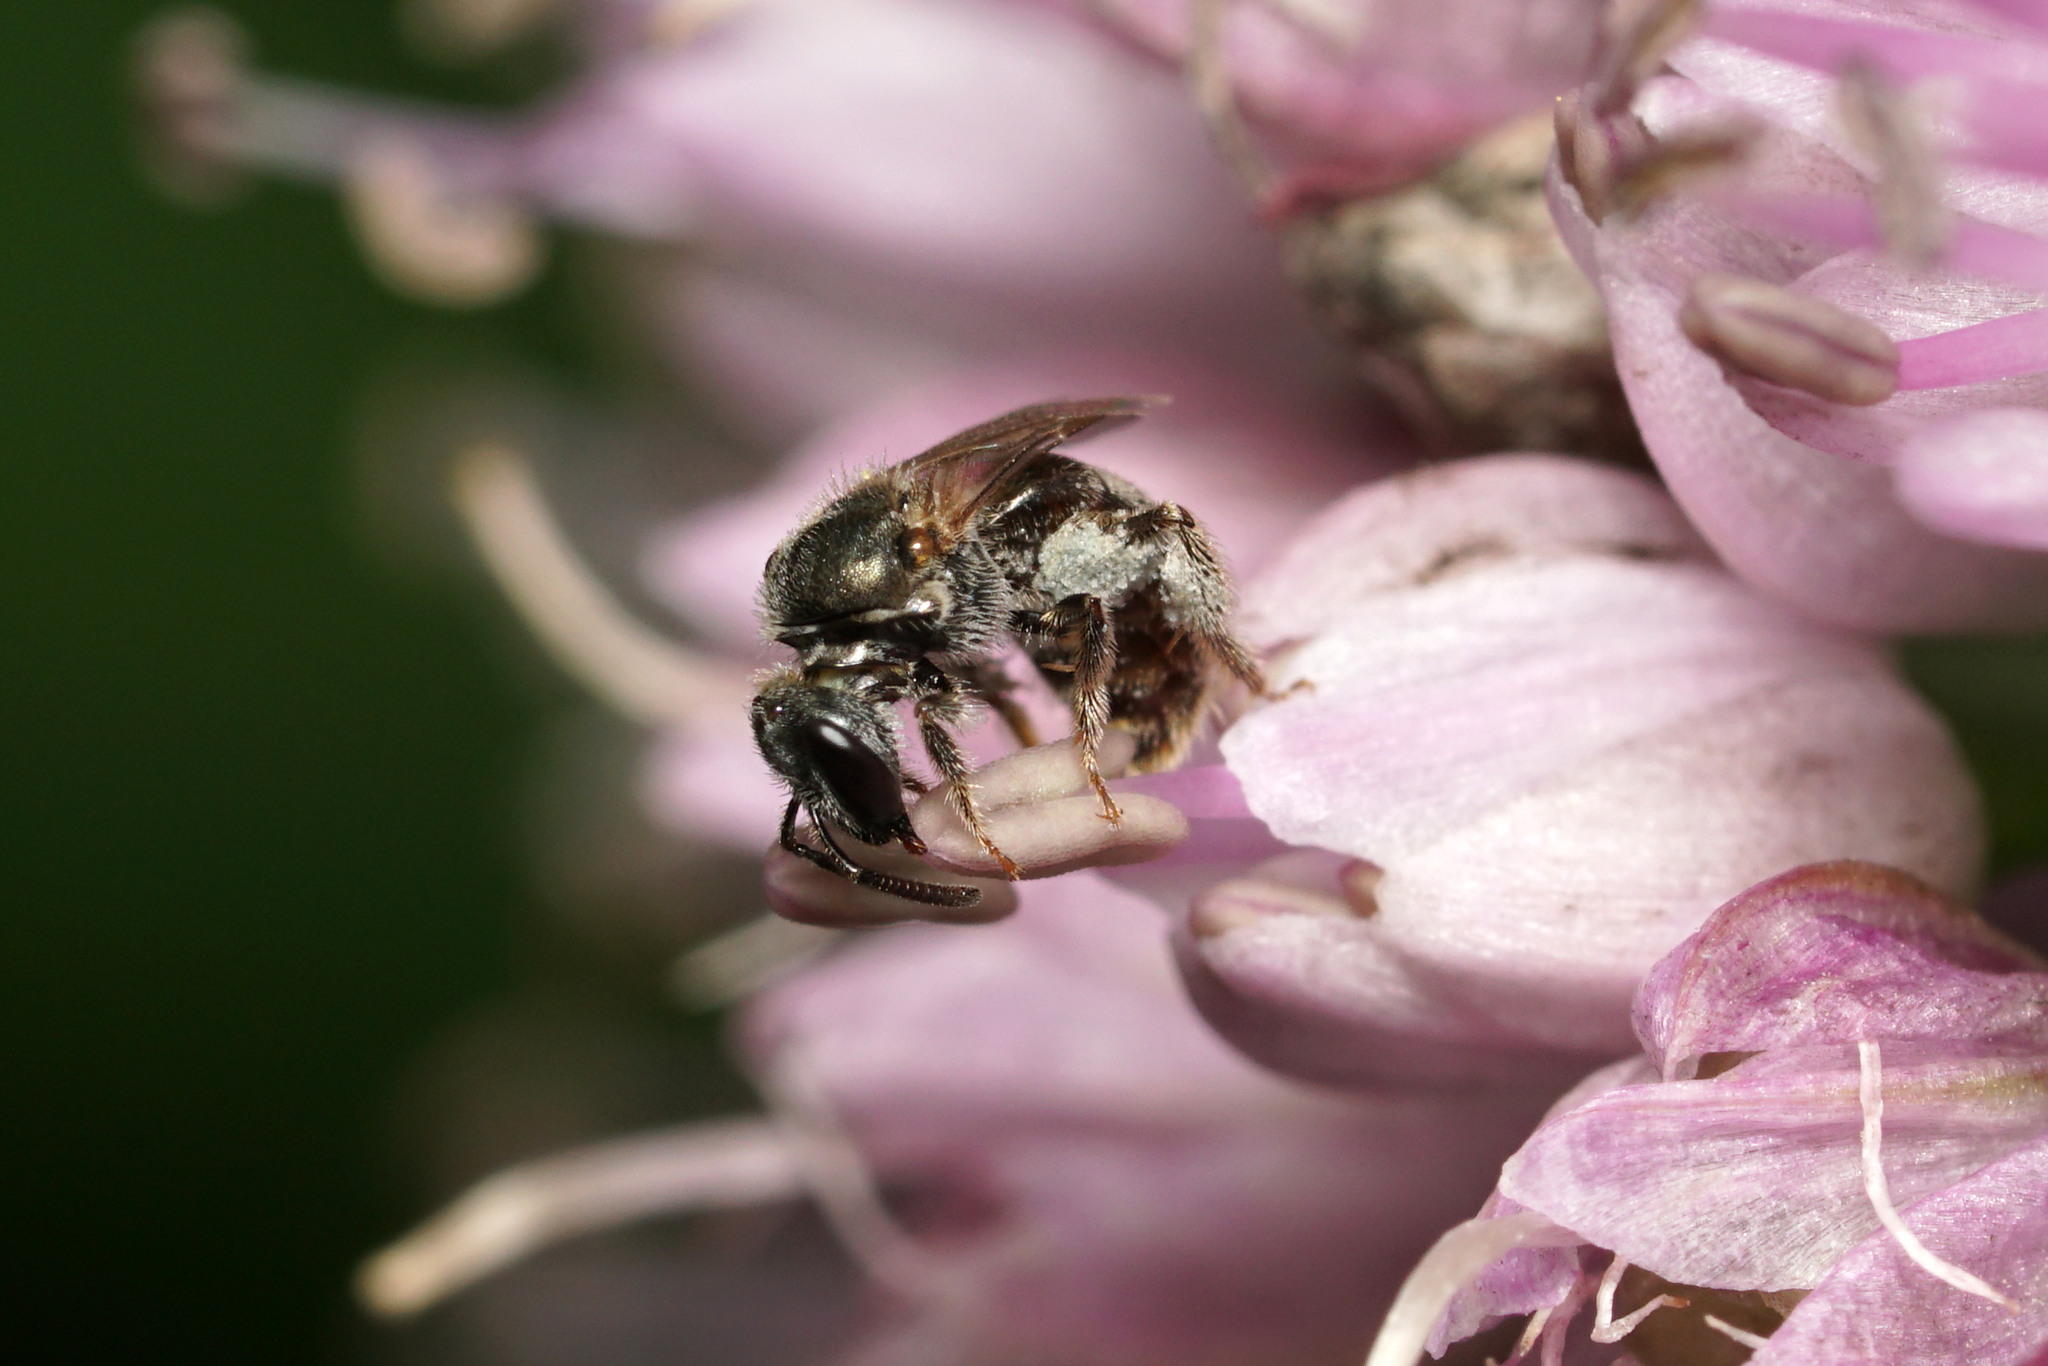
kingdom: Animalia
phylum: Arthropoda
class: Insecta
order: Hymenoptera
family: Halictidae
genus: Dialictus
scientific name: Dialictus
